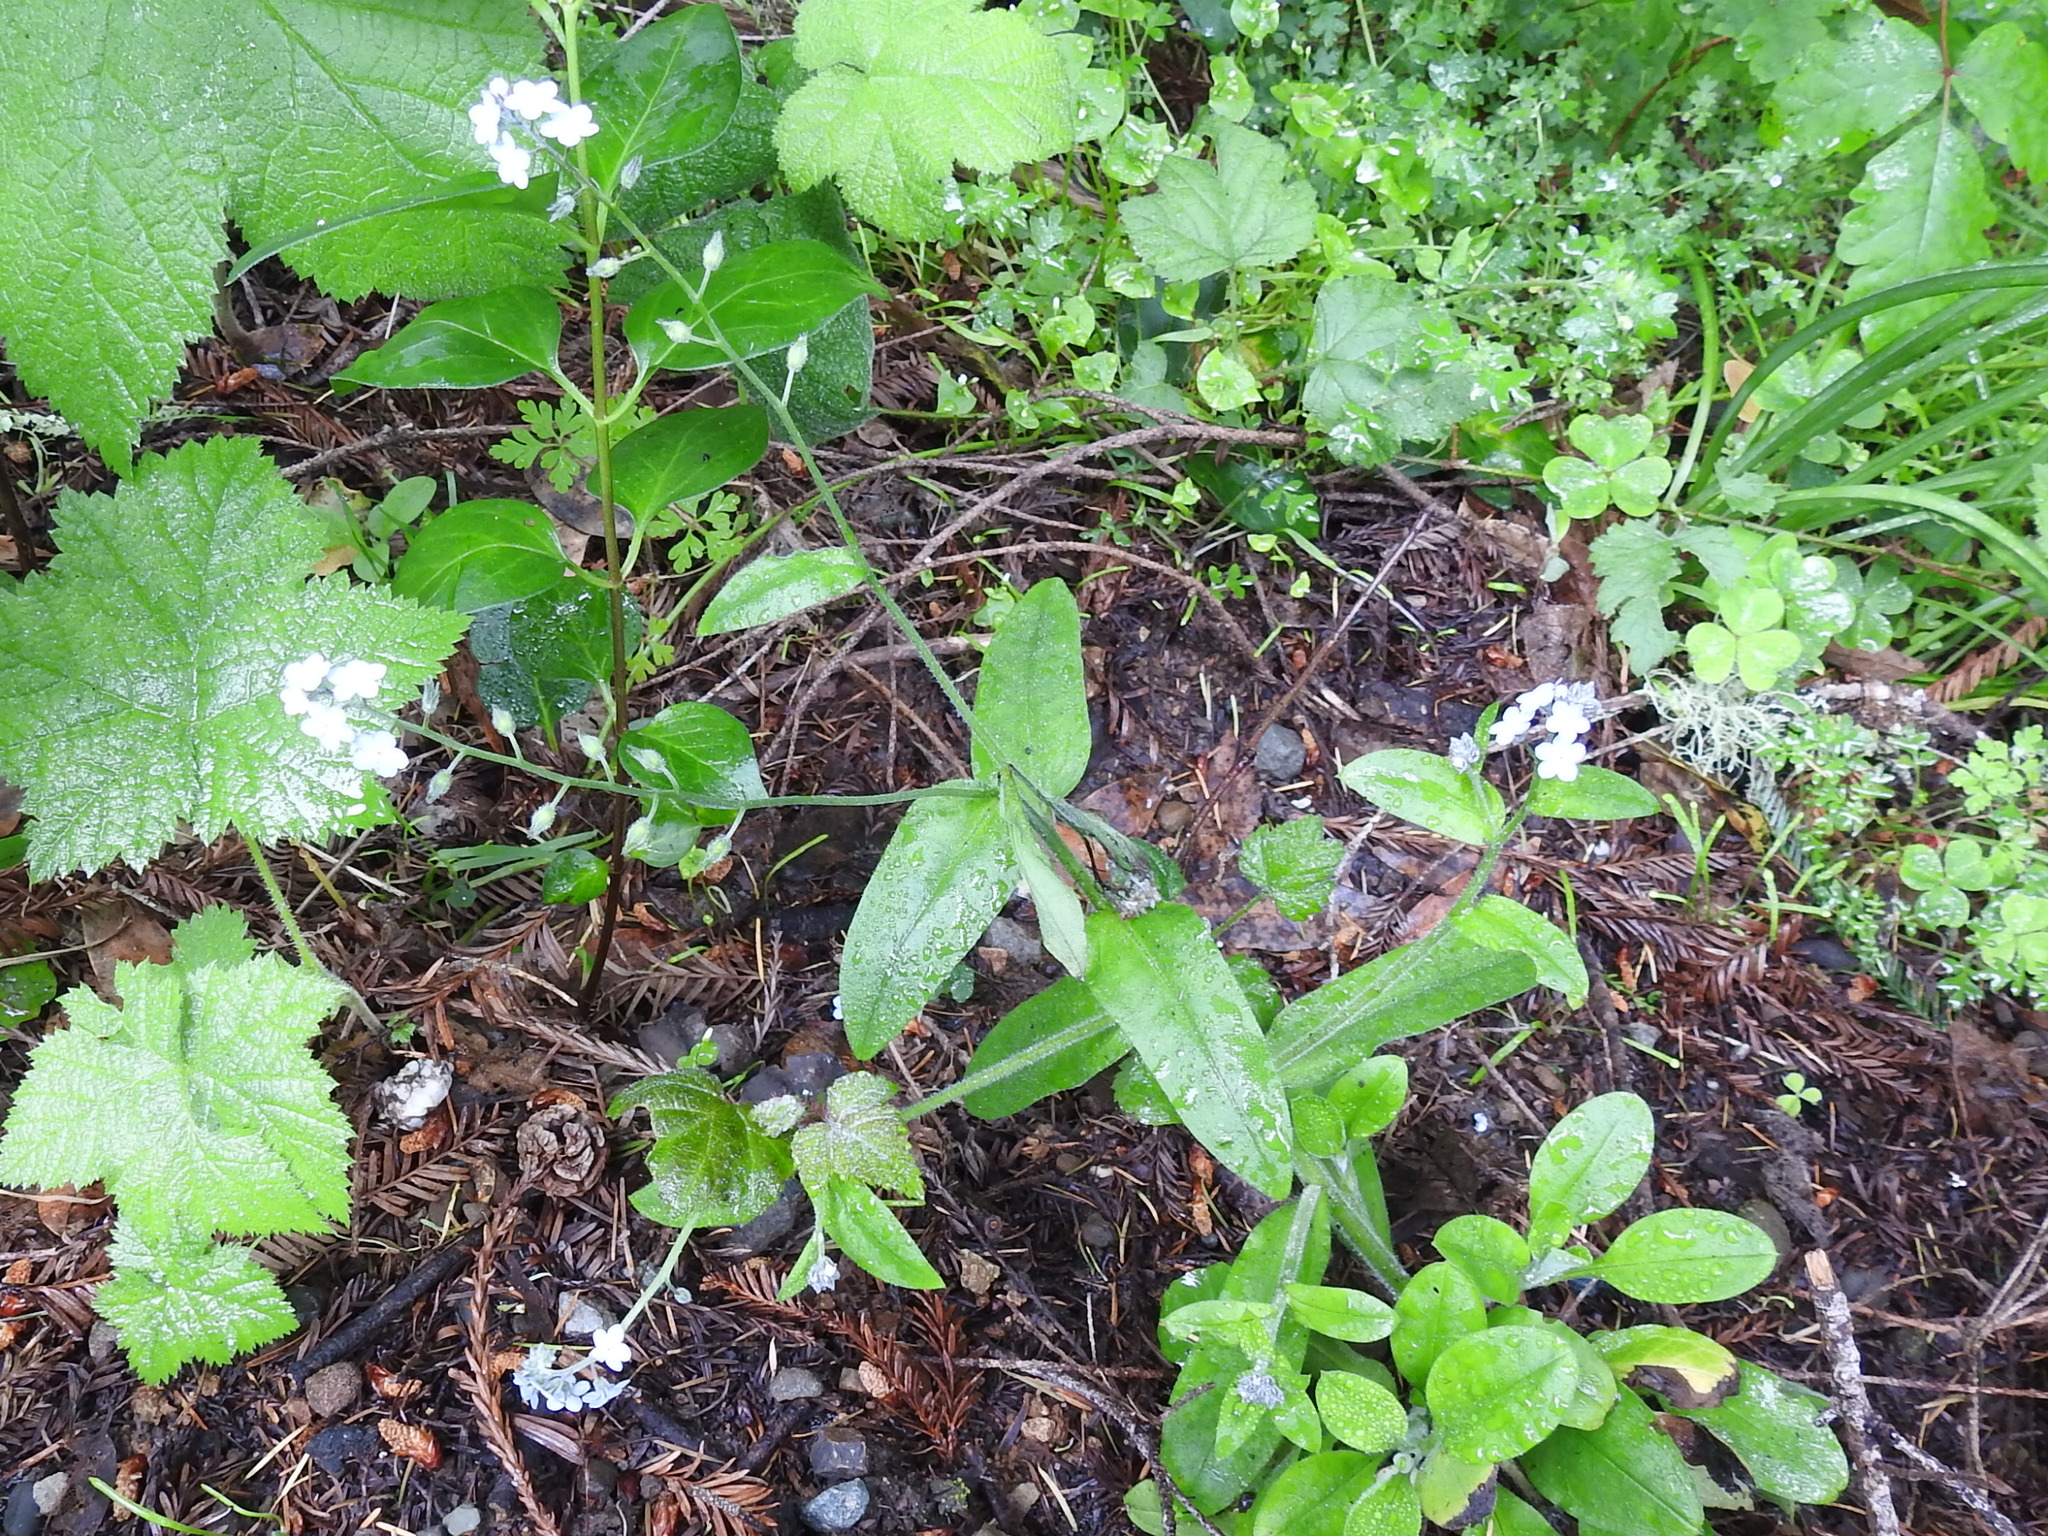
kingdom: Plantae
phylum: Tracheophyta
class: Magnoliopsida
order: Boraginales
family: Boraginaceae
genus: Myosotis
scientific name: Myosotis latifolia
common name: Broadleaf forget-me-not
